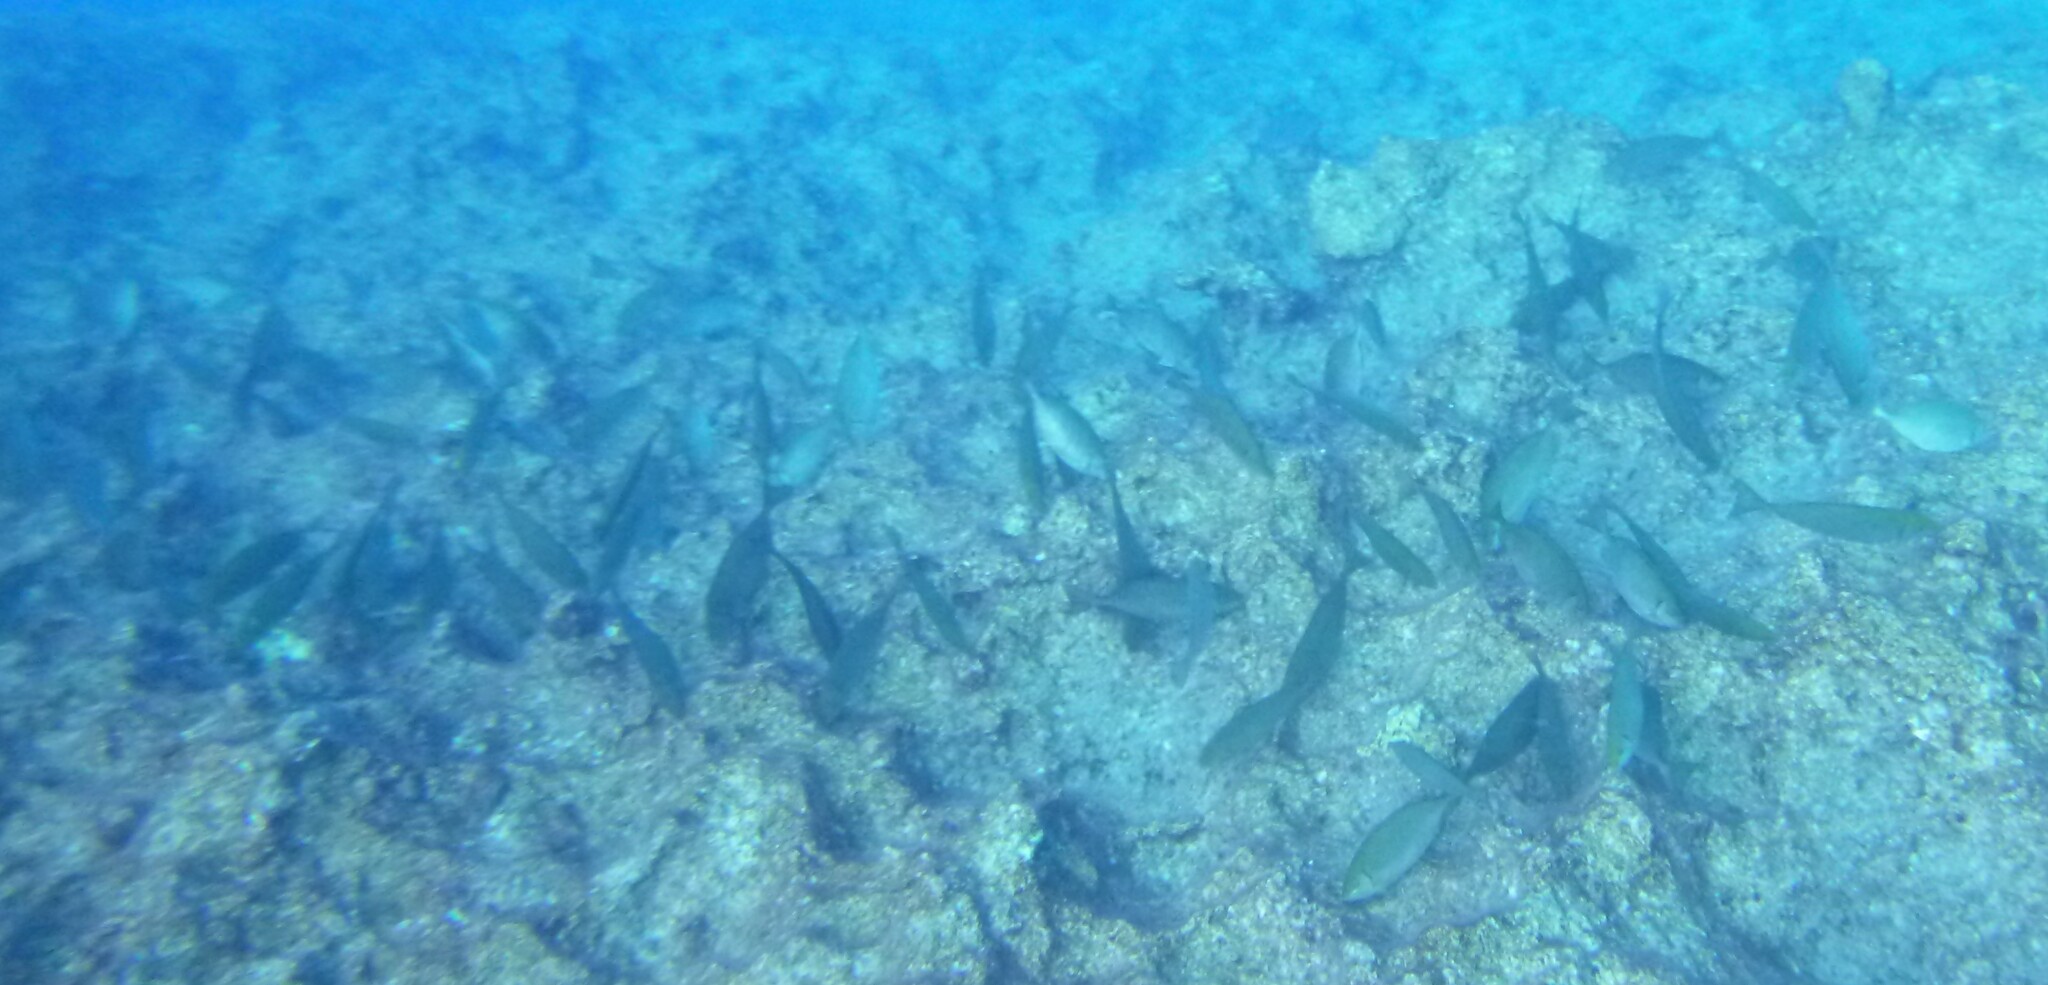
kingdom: Animalia
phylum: Chordata
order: Perciformes
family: Siganidae
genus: Siganus
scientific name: Siganus
